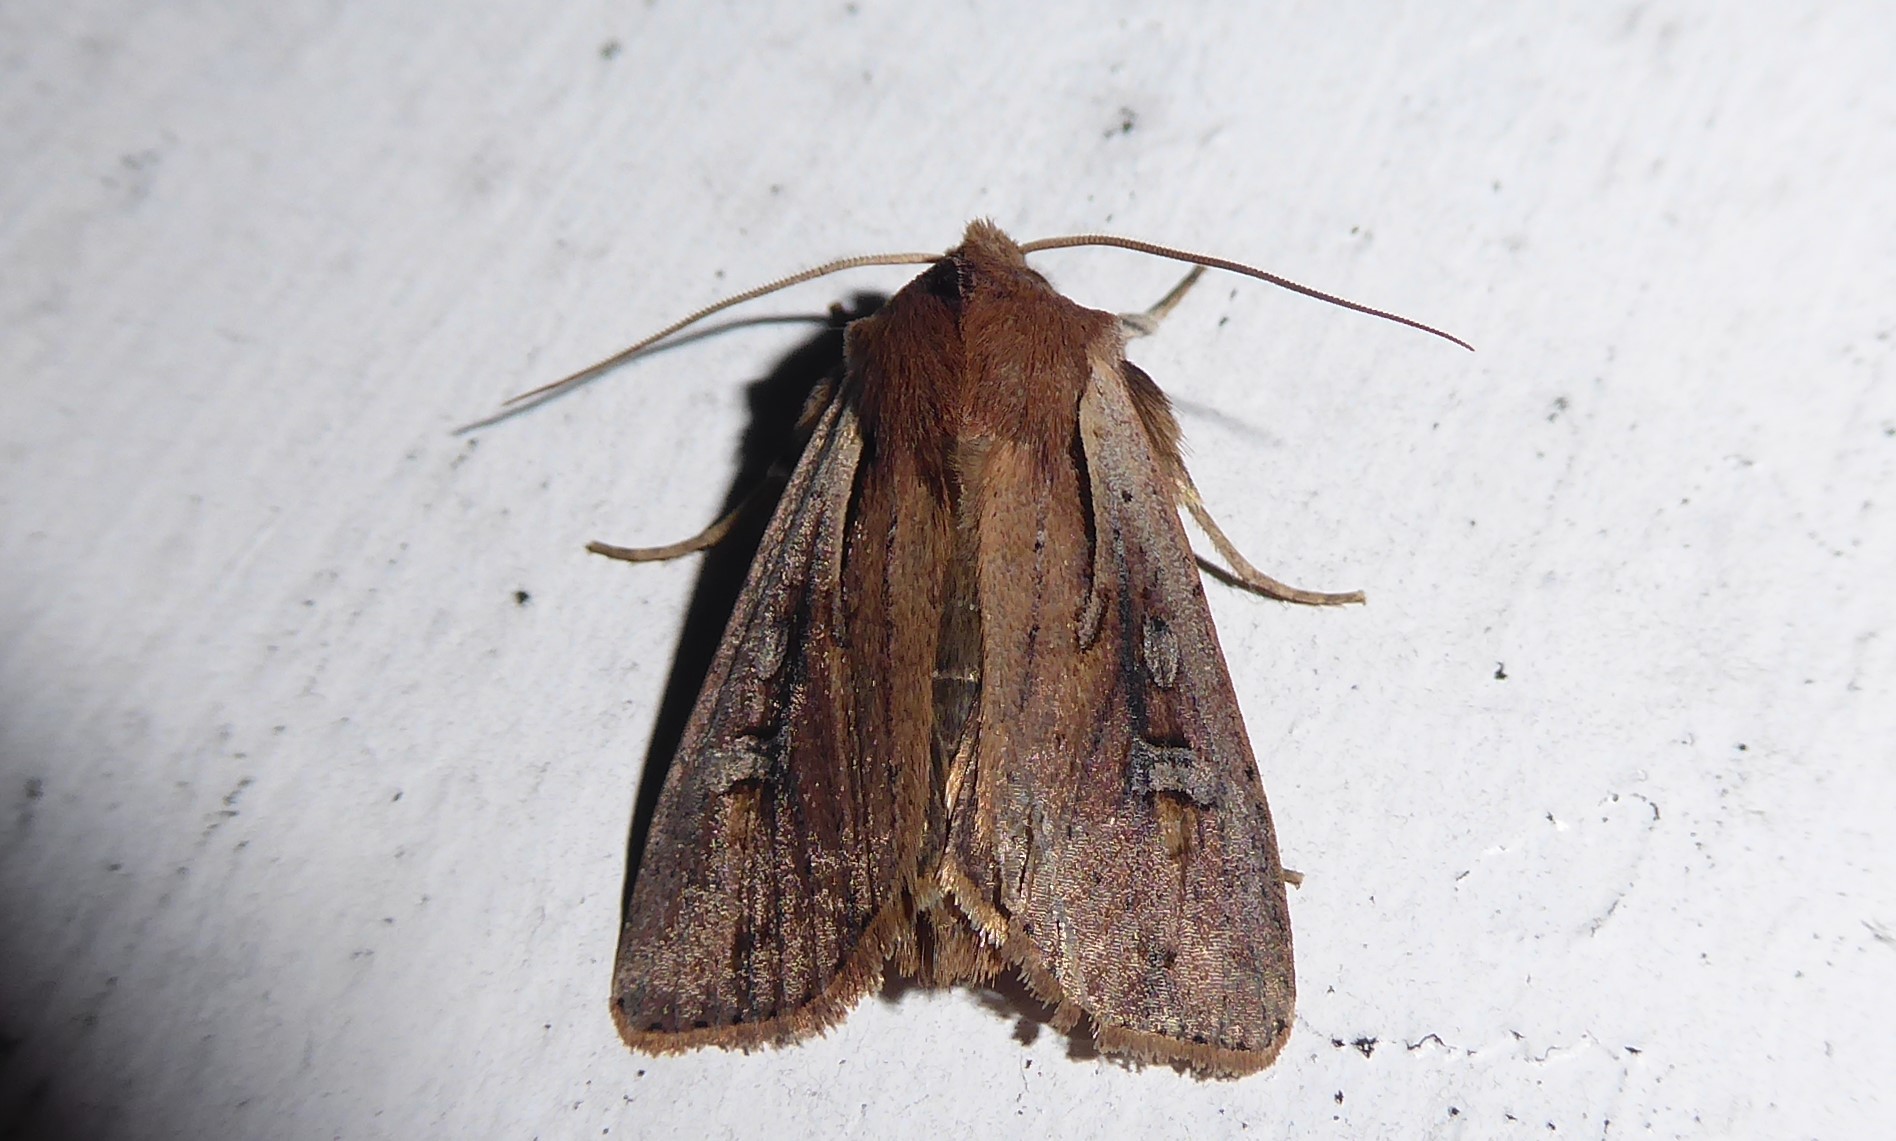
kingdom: Animalia
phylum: Arthropoda
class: Insecta
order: Lepidoptera
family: Noctuidae
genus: Ichneutica
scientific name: Ichneutica atristriga
